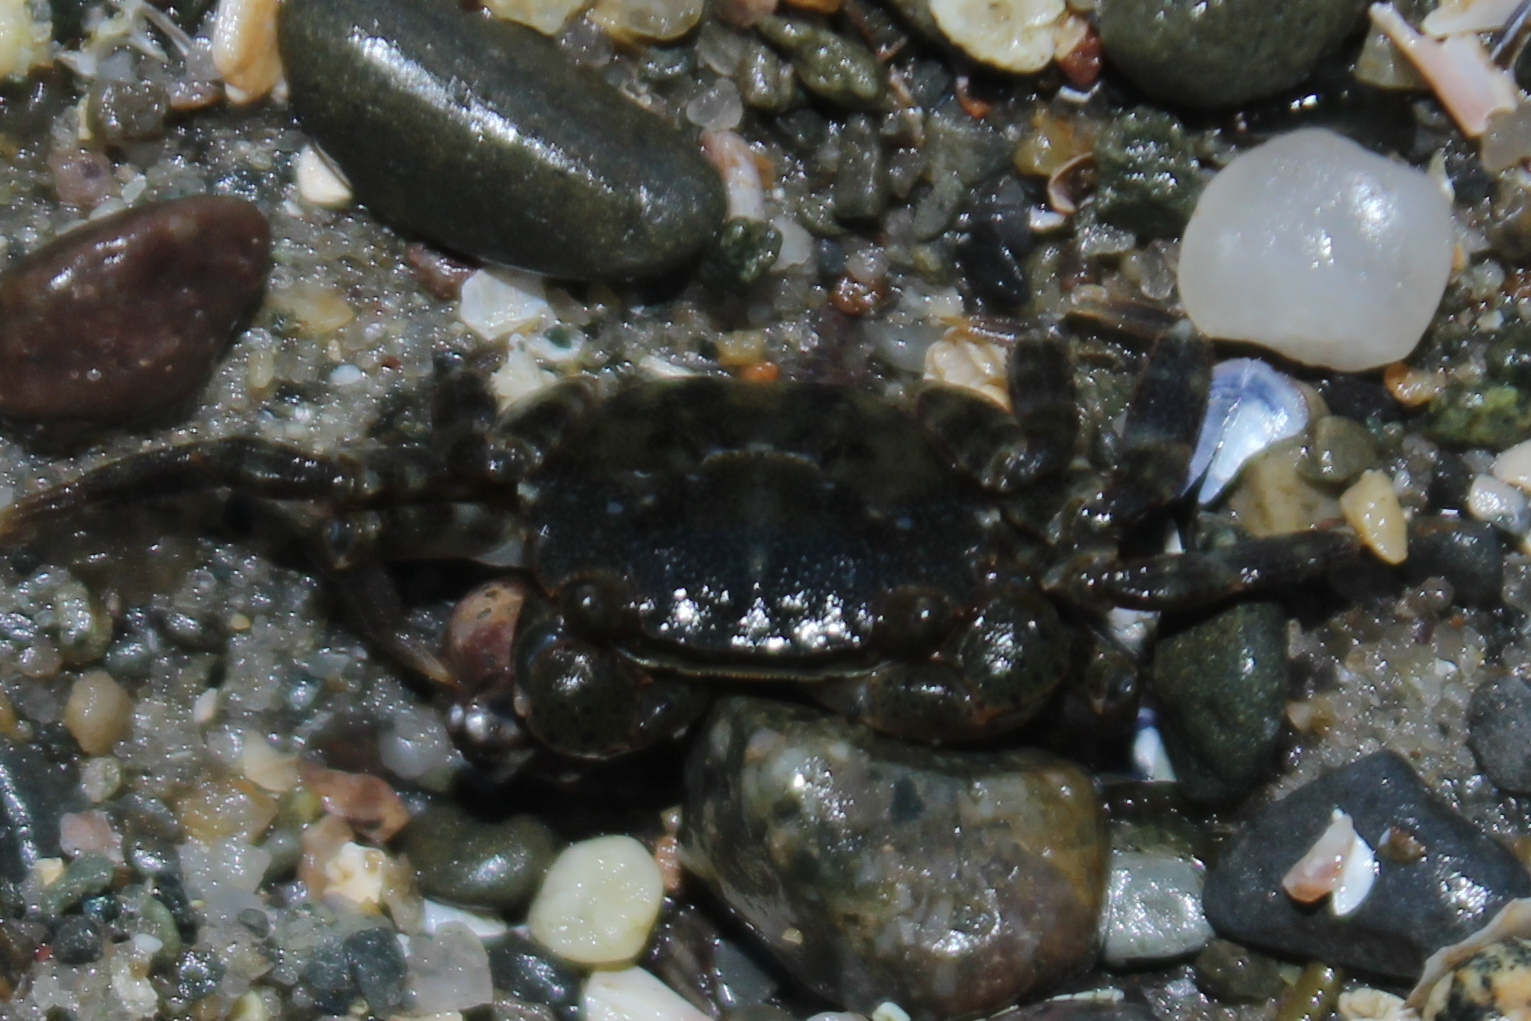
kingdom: Animalia
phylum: Arthropoda
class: Malacostraca
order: Decapoda
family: Varunidae
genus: Hemigrapsus
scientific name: Hemigrapsus sanguineus
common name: Asian shore crab
